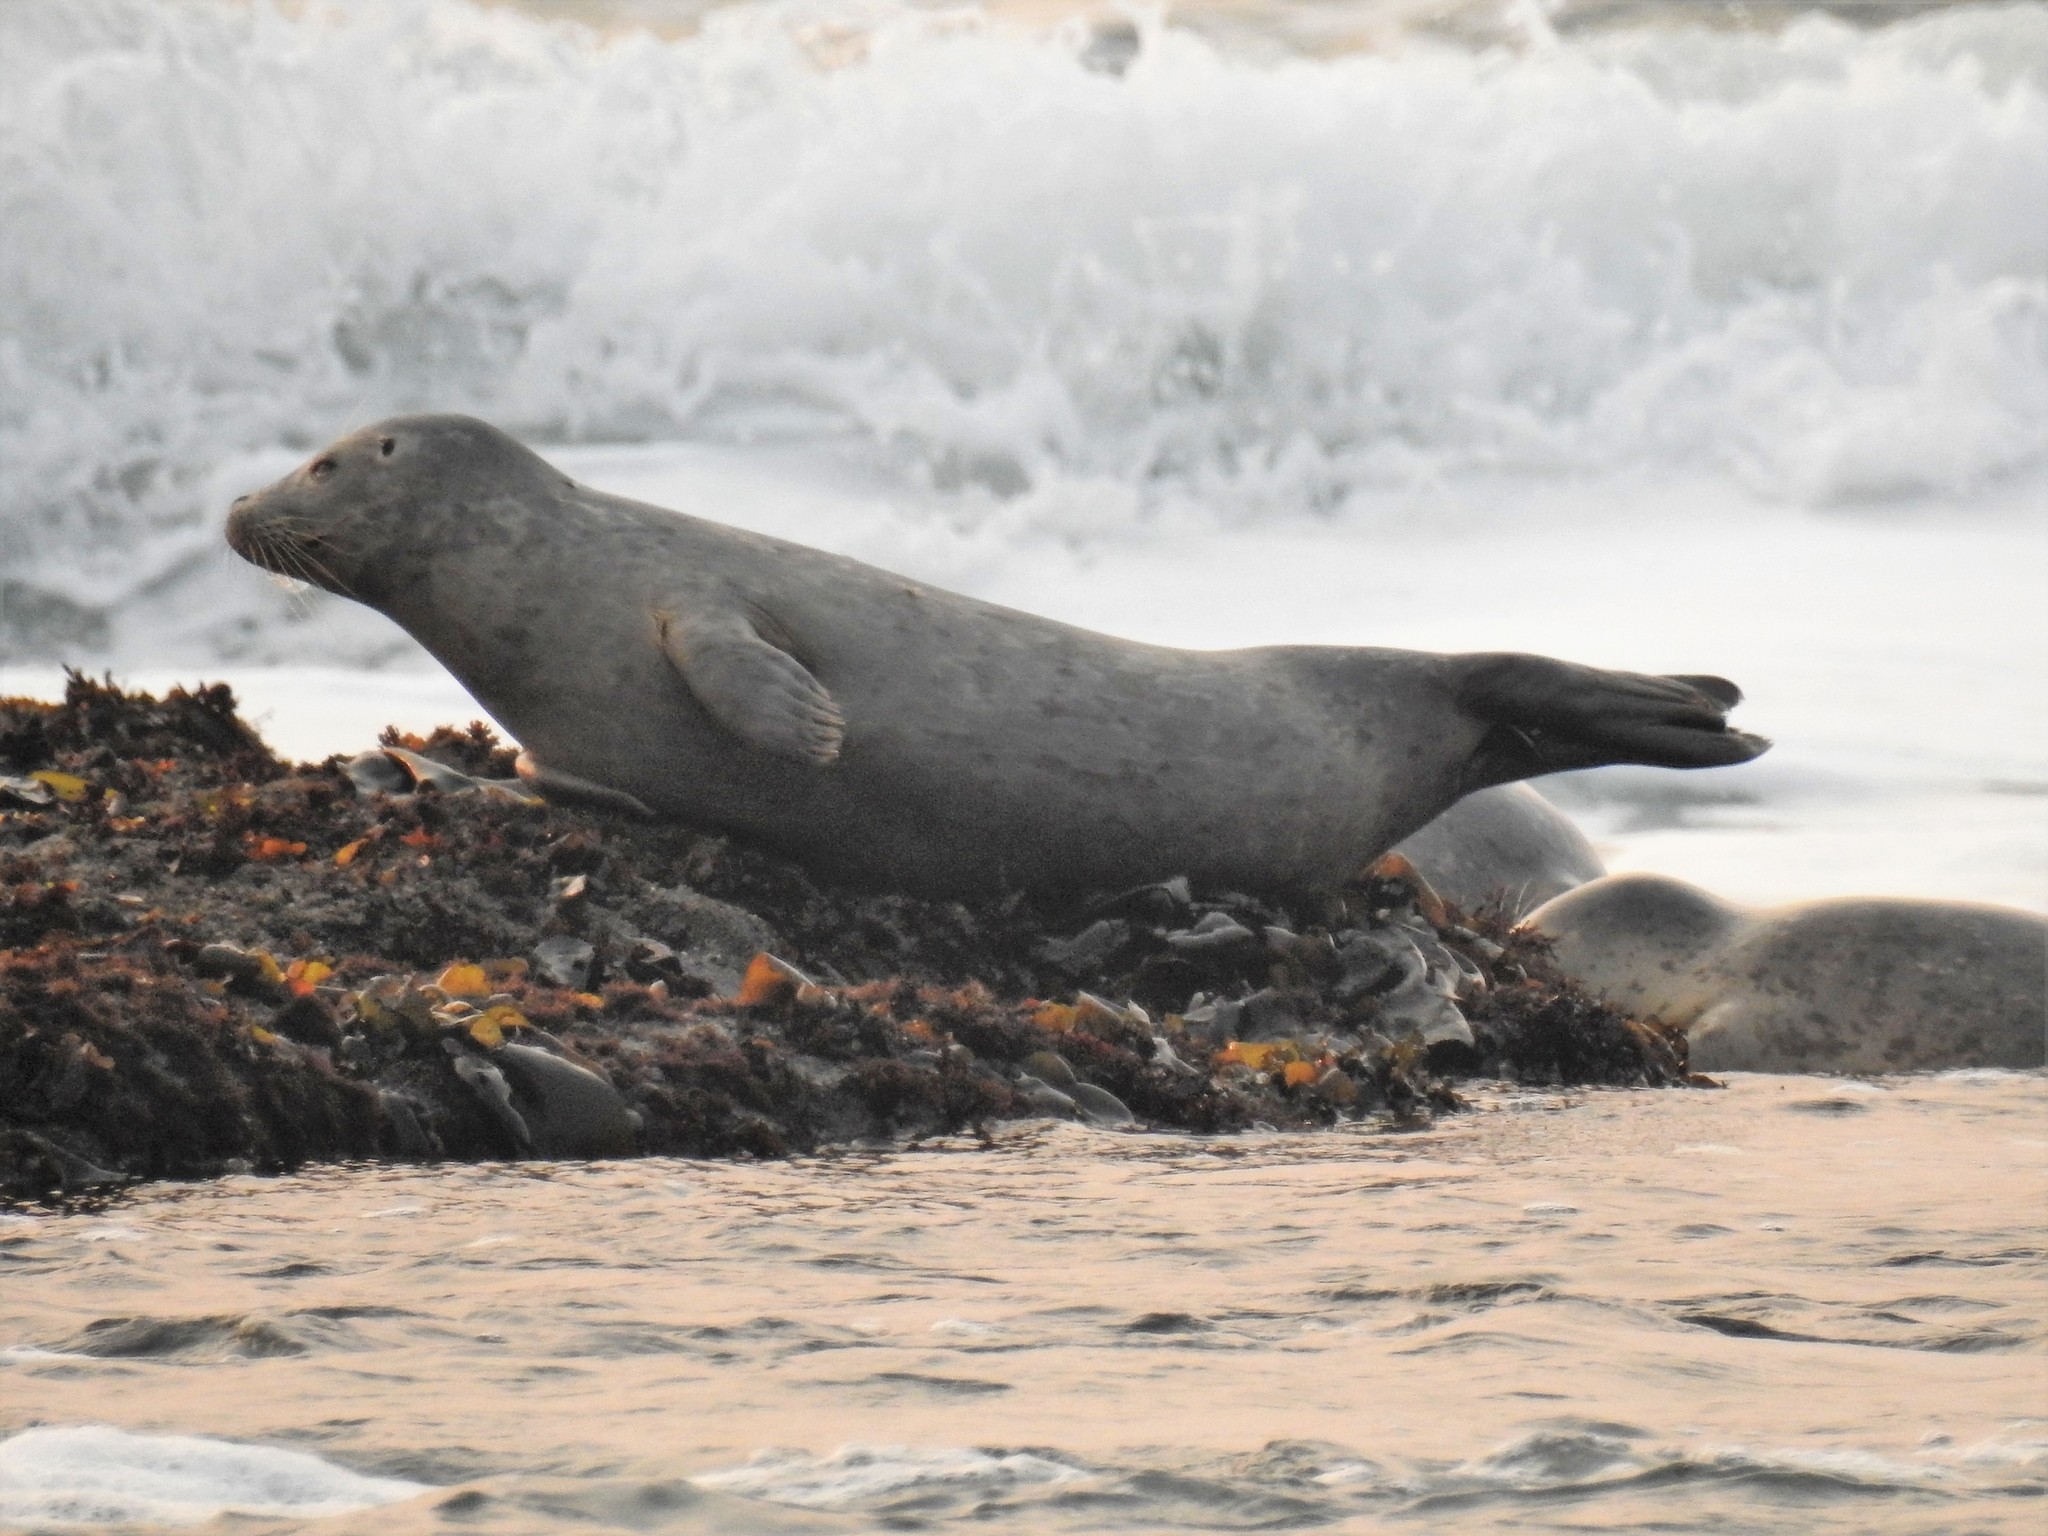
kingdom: Animalia
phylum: Chordata
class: Mammalia
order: Carnivora
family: Phocidae
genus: Phoca
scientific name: Phoca vitulina
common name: Harbor seal
